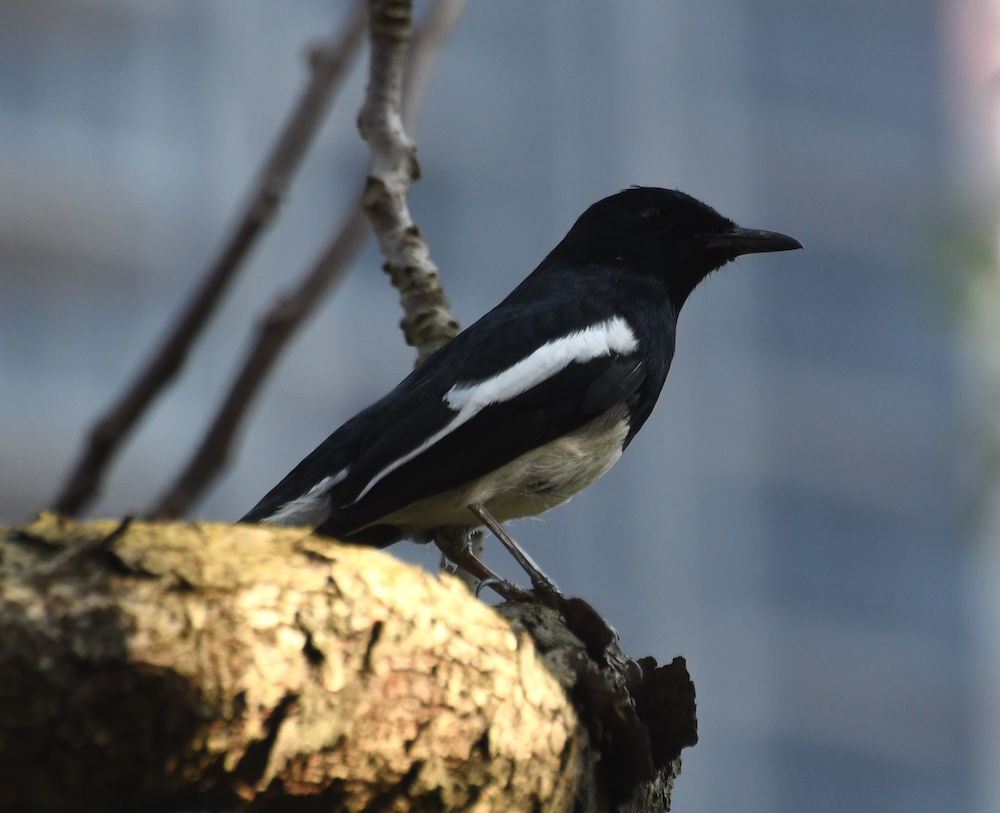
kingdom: Animalia
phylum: Chordata
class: Aves
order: Passeriformes
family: Muscicapidae
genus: Copsychus
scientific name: Copsychus saularis
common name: Oriental magpie-robin
